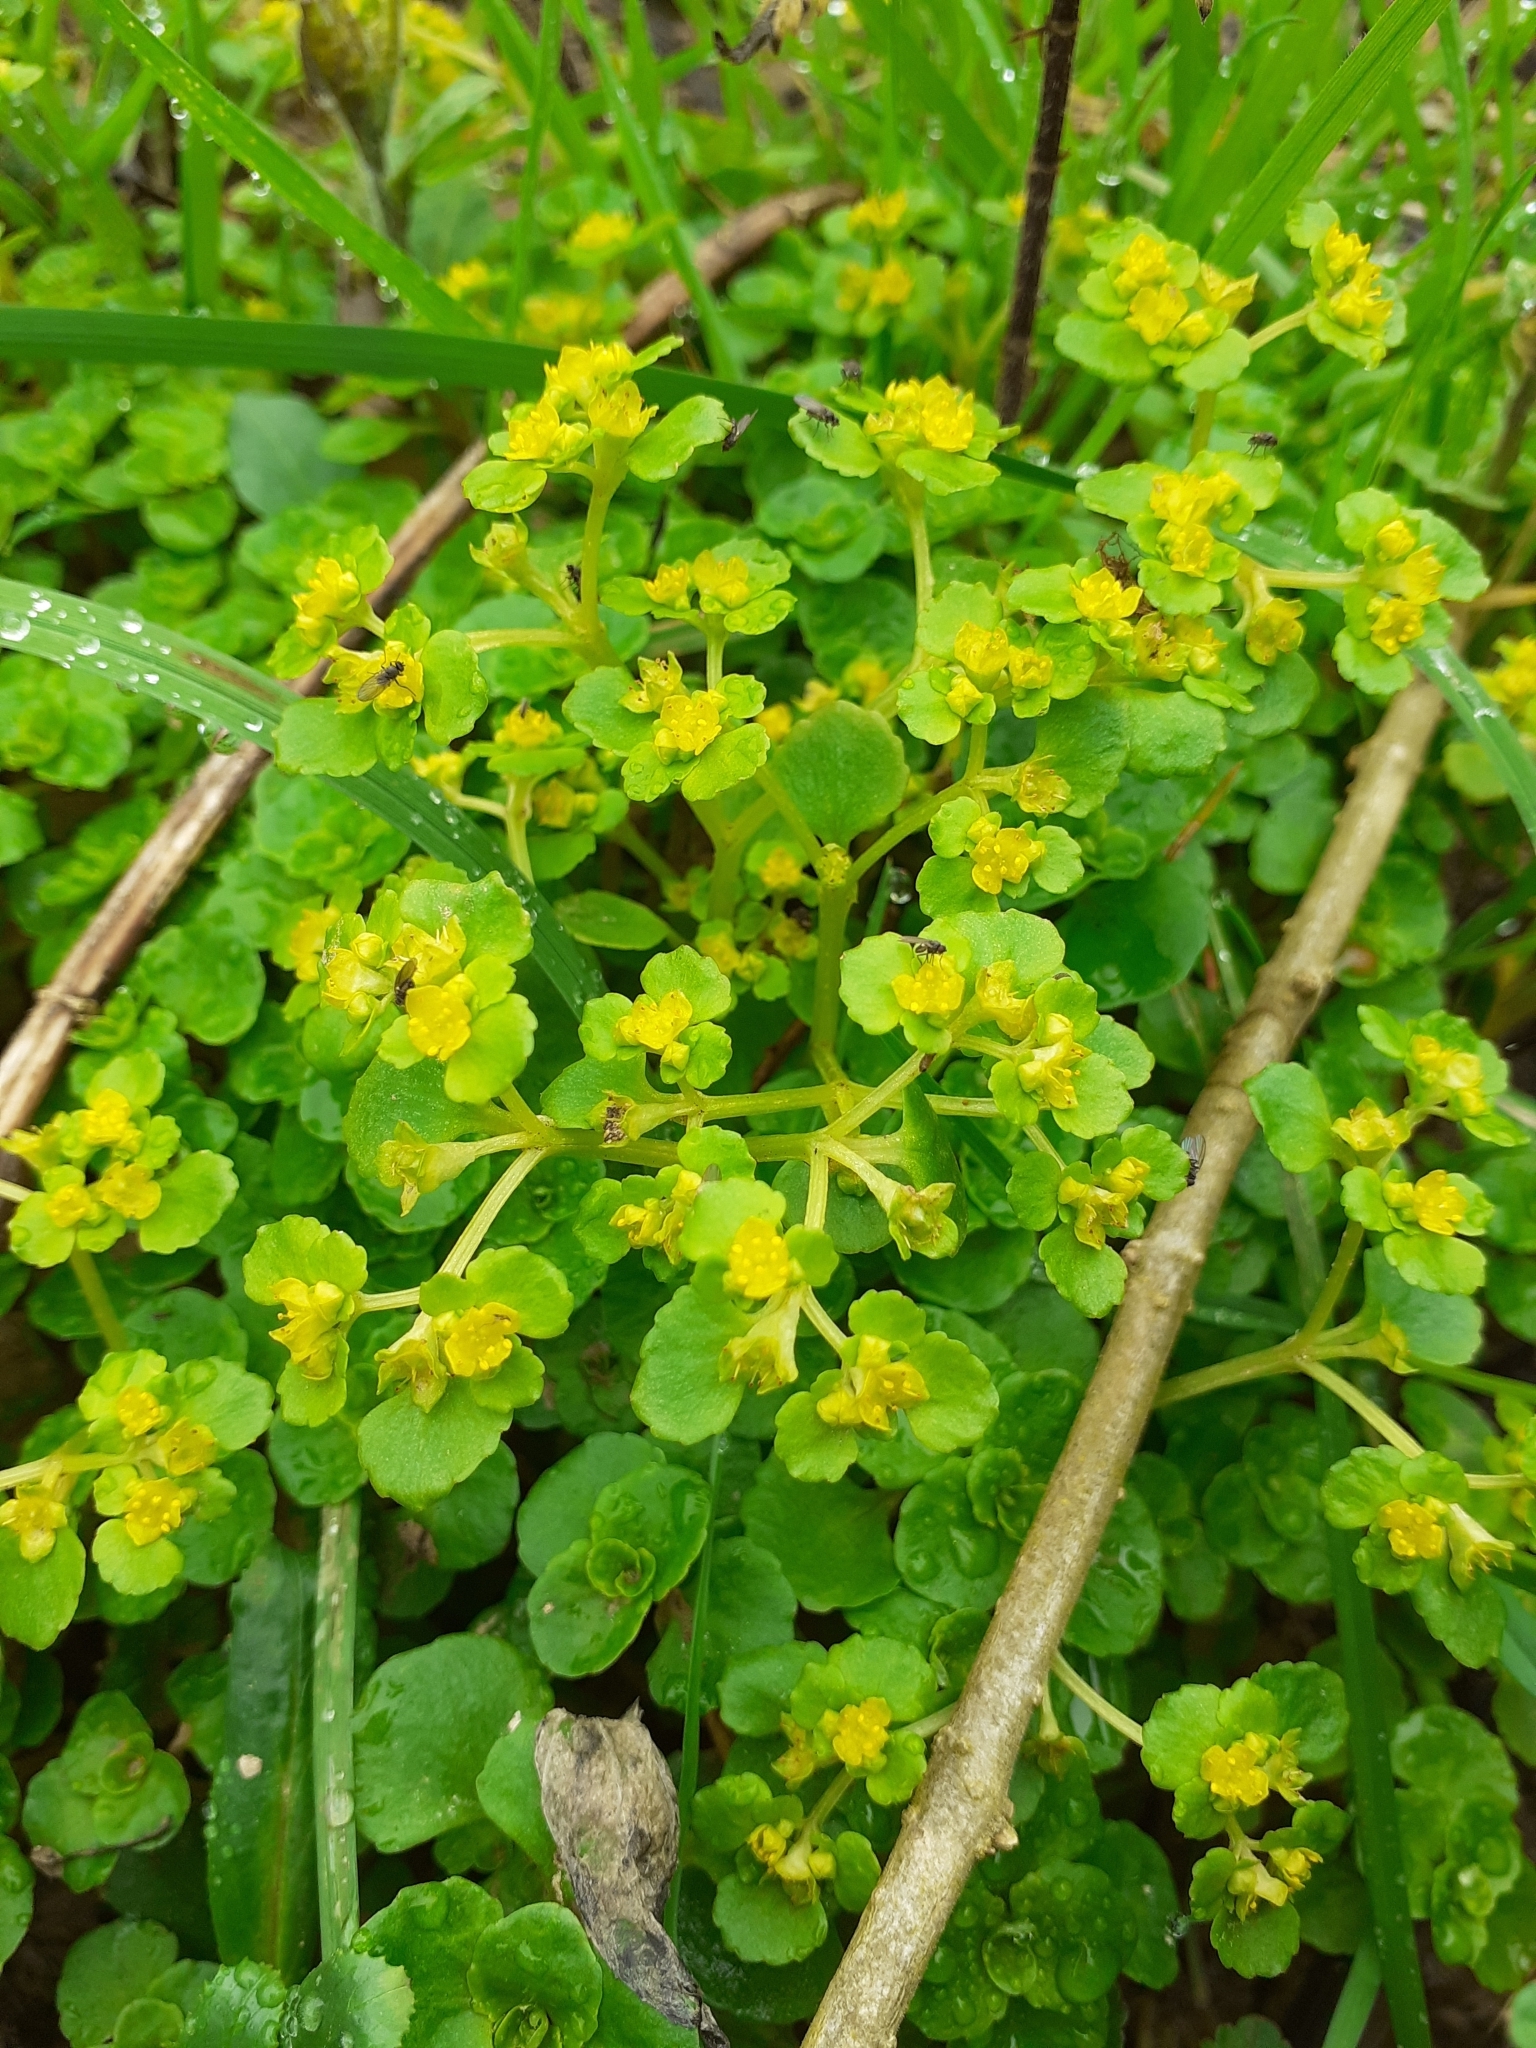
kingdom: Plantae
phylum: Tracheophyta
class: Magnoliopsida
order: Saxifragales
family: Saxifragaceae
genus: Chrysosplenium
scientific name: Chrysosplenium oppositifolium
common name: Opposite-leaved golden-saxifrage
